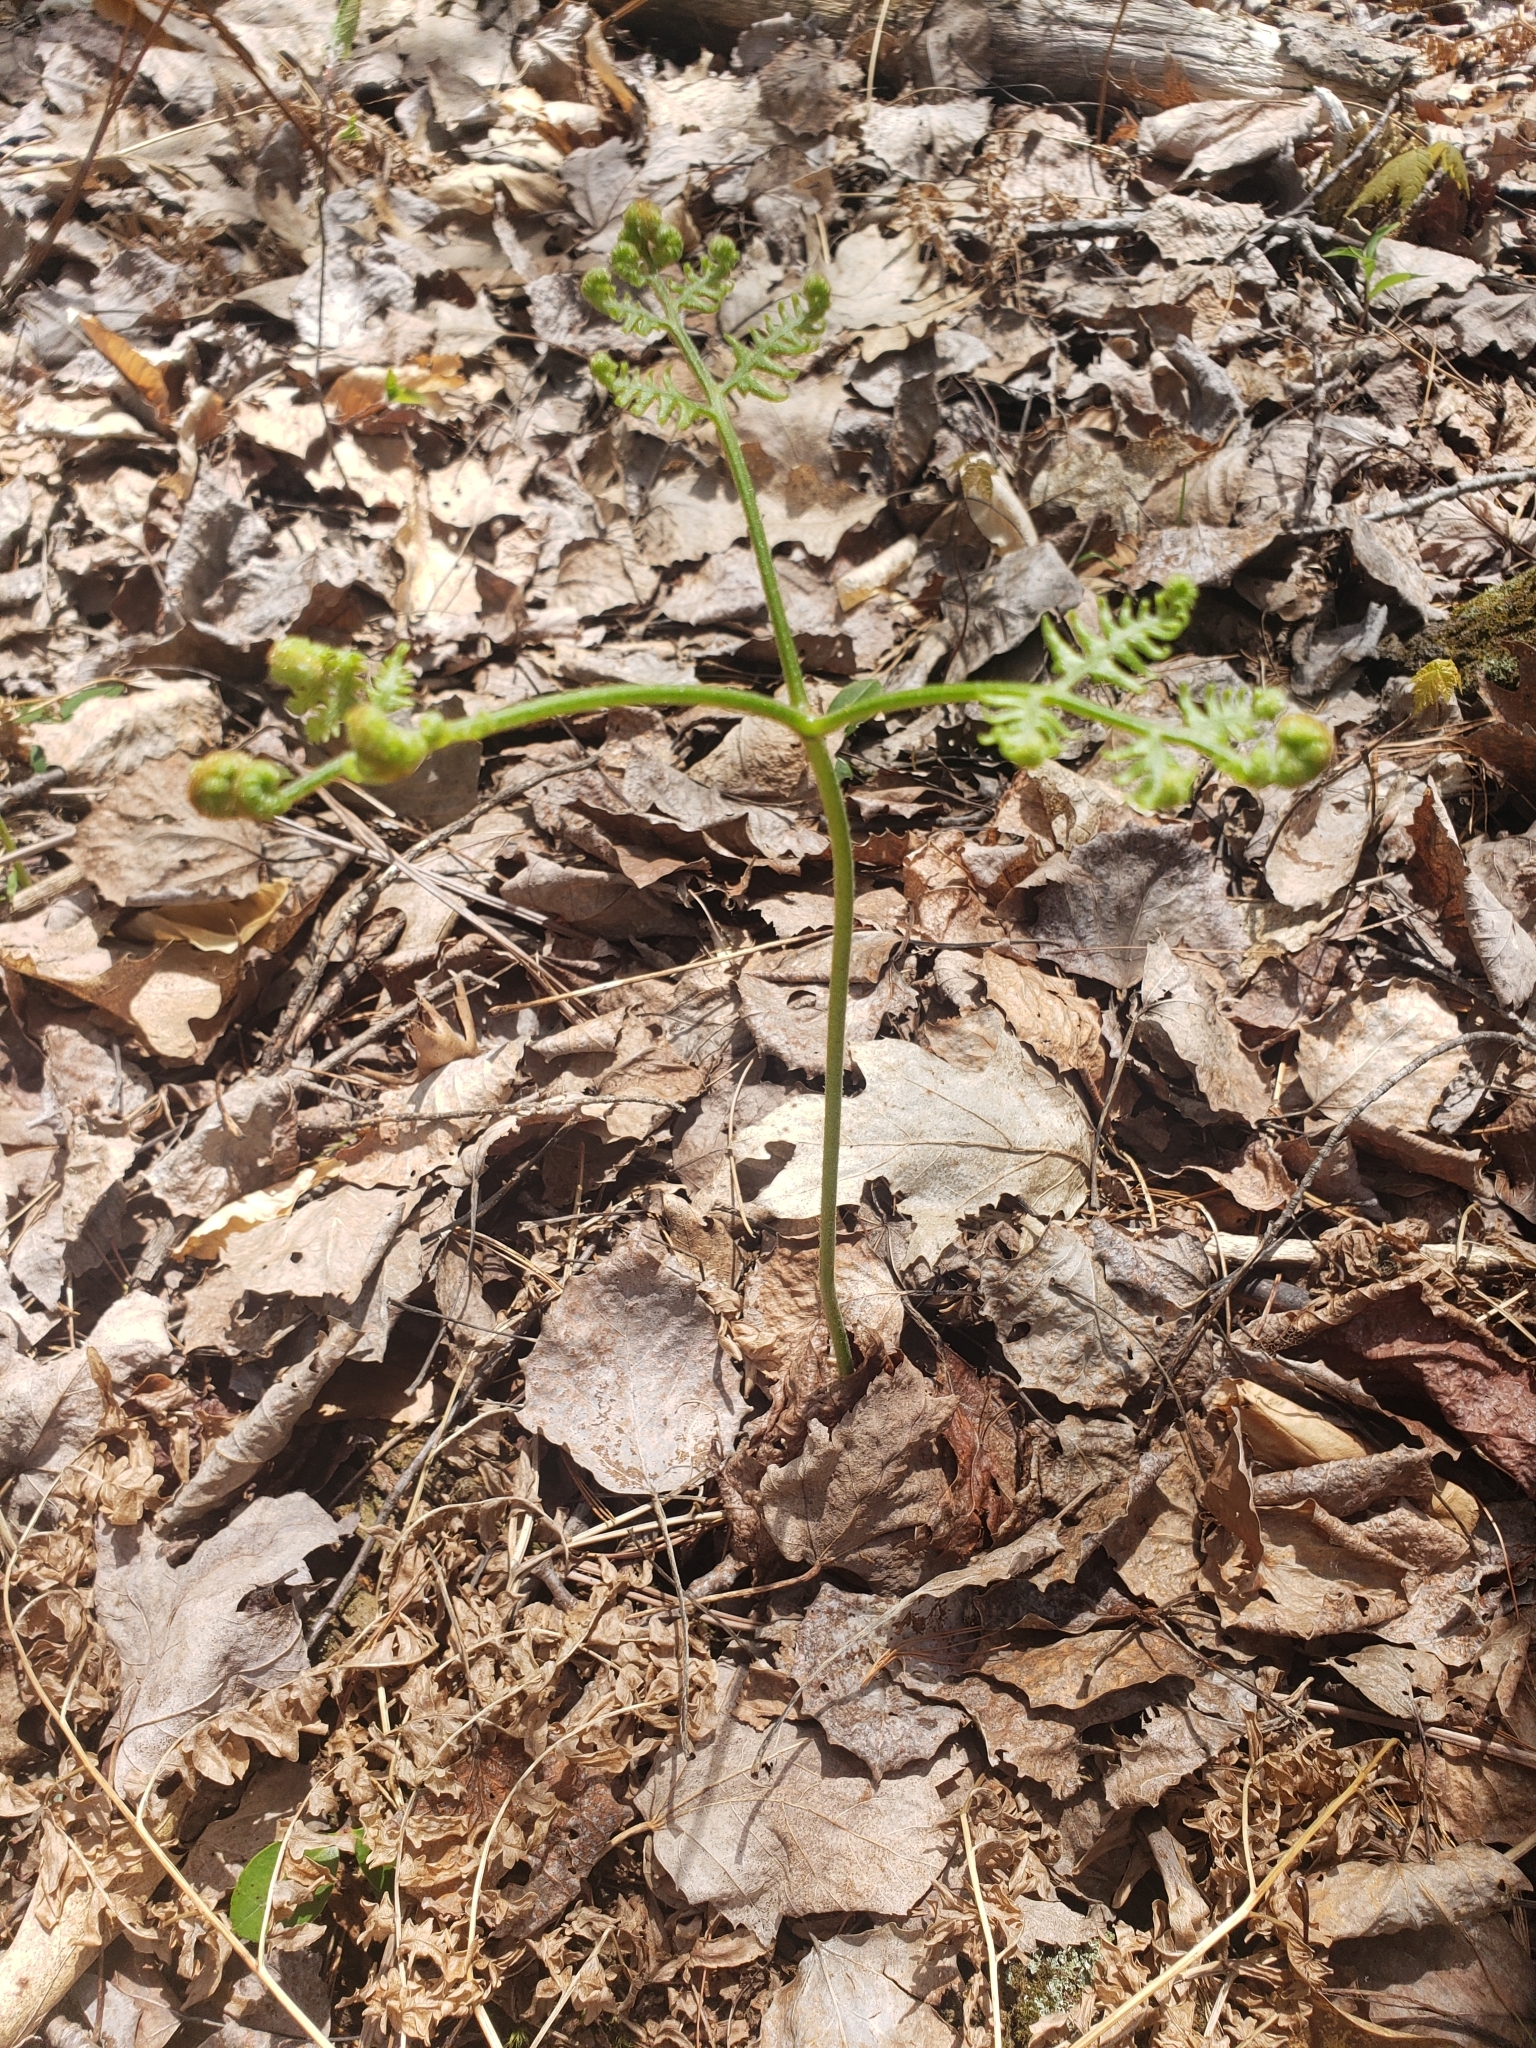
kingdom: Plantae
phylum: Tracheophyta
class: Polypodiopsida
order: Polypodiales
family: Dennstaedtiaceae
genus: Pteridium
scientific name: Pteridium aquilinum
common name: Bracken
